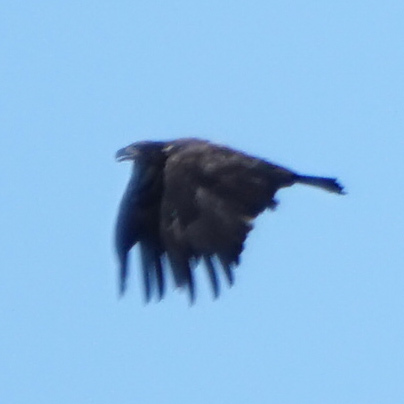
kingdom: Animalia
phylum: Chordata
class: Aves
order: Accipitriformes
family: Accipitridae
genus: Haliaeetus
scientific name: Haliaeetus leucocephalus
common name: Bald eagle
